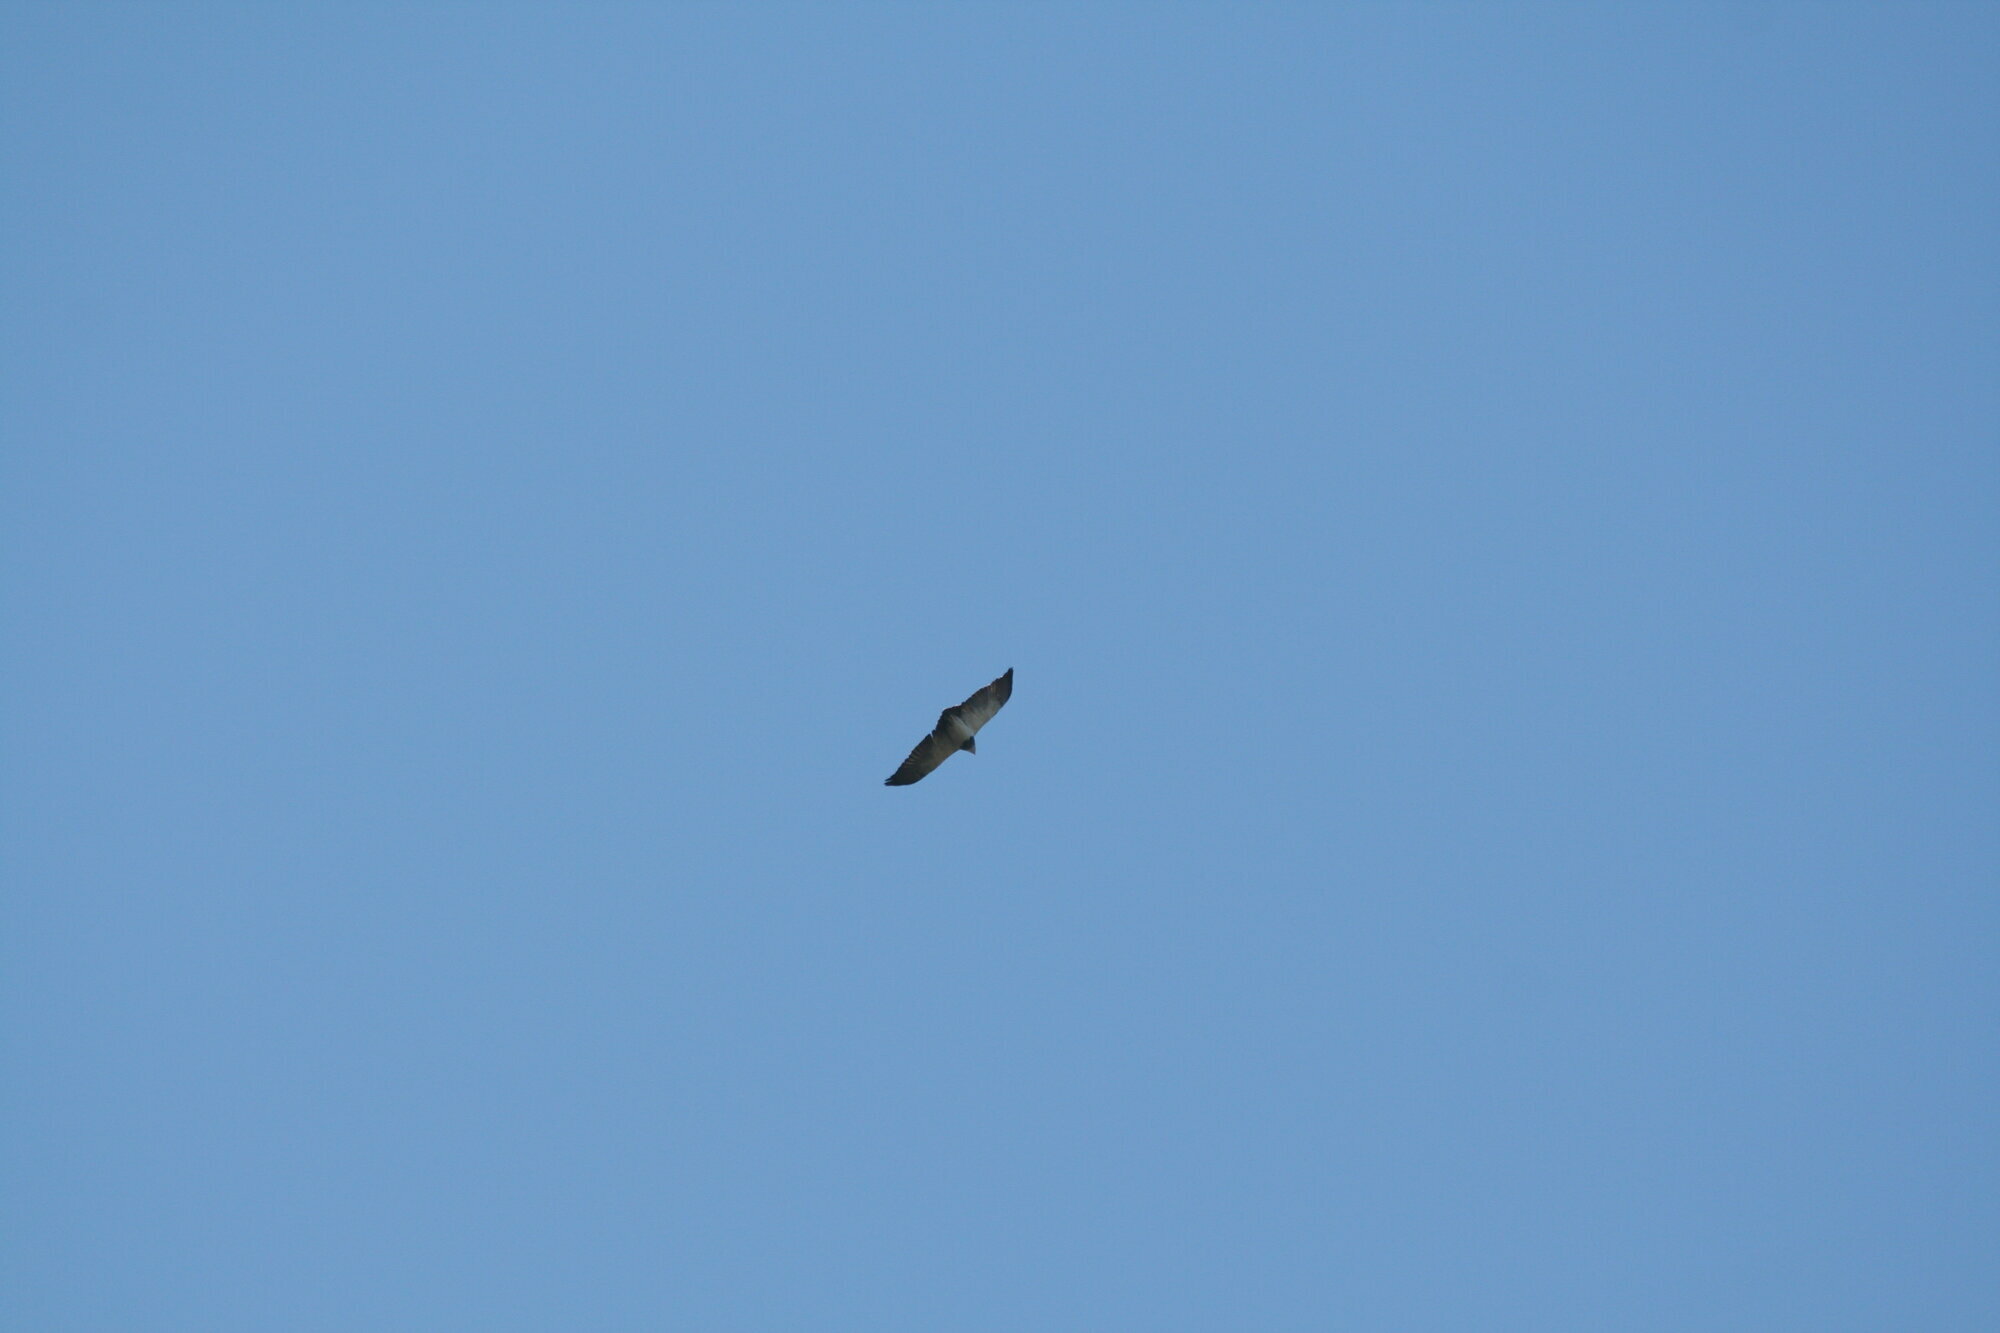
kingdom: Animalia
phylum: Chordata
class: Aves
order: Accipitriformes
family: Accipitridae
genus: Geranoaetus
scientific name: Geranoaetus melanoleucus
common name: Black-chested buzzard-eagle
